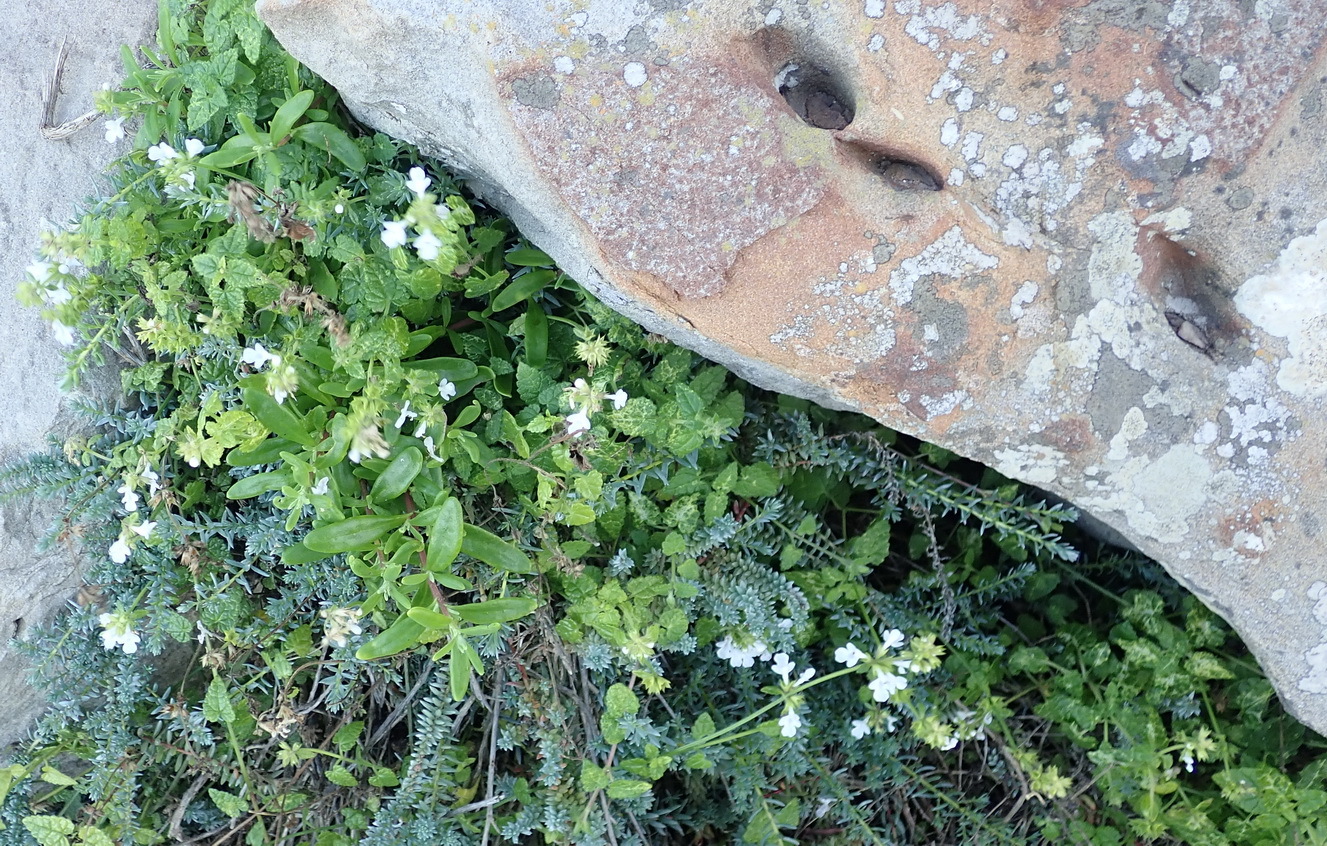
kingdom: Plantae
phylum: Tracheophyta
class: Magnoliopsida
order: Lamiales
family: Lamiaceae
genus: Stachys
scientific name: Stachys aethiopica
